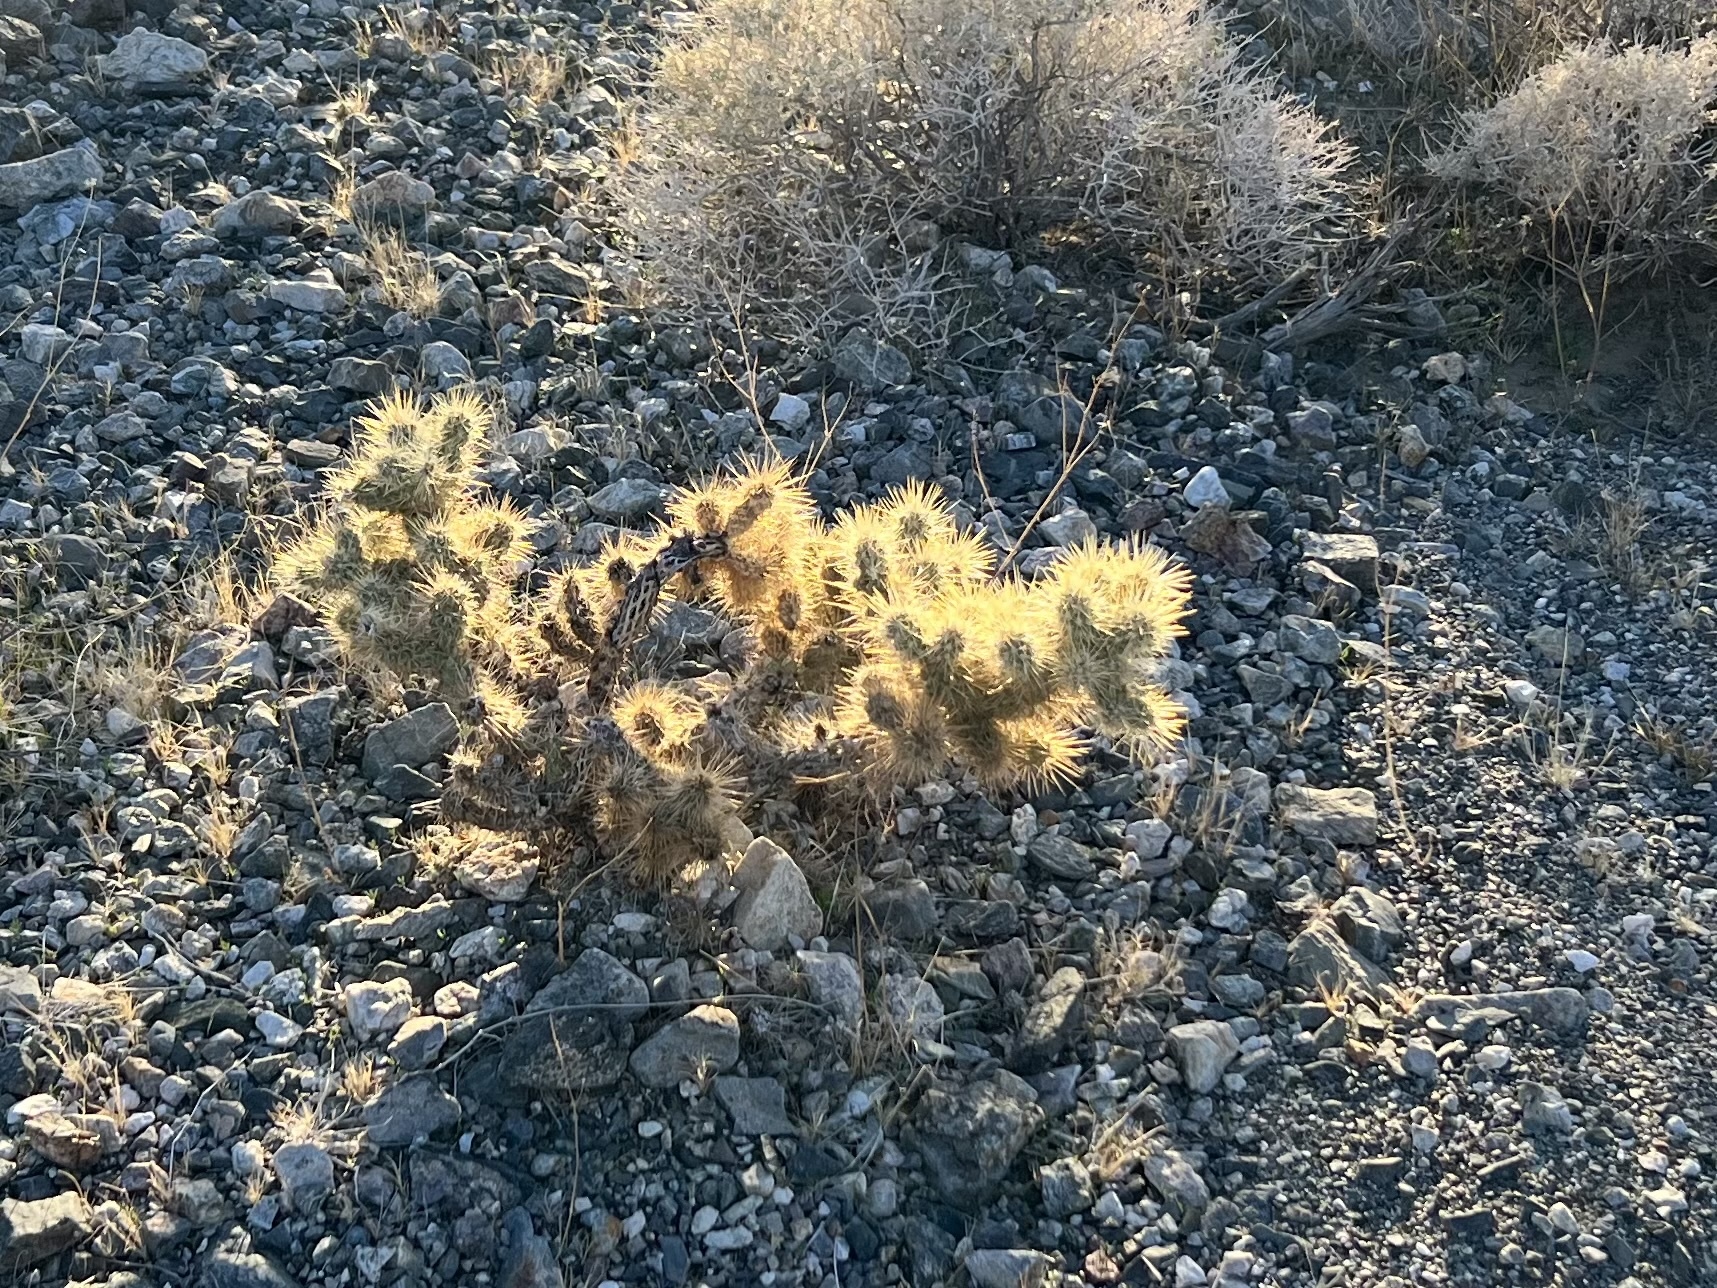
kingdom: Plantae
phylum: Tracheophyta
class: Magnoliopsida
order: Caryophyllales
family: Cactaceae
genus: Cylindropuntia
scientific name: Cylindropuntia echinocarpa
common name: Ground cholla
